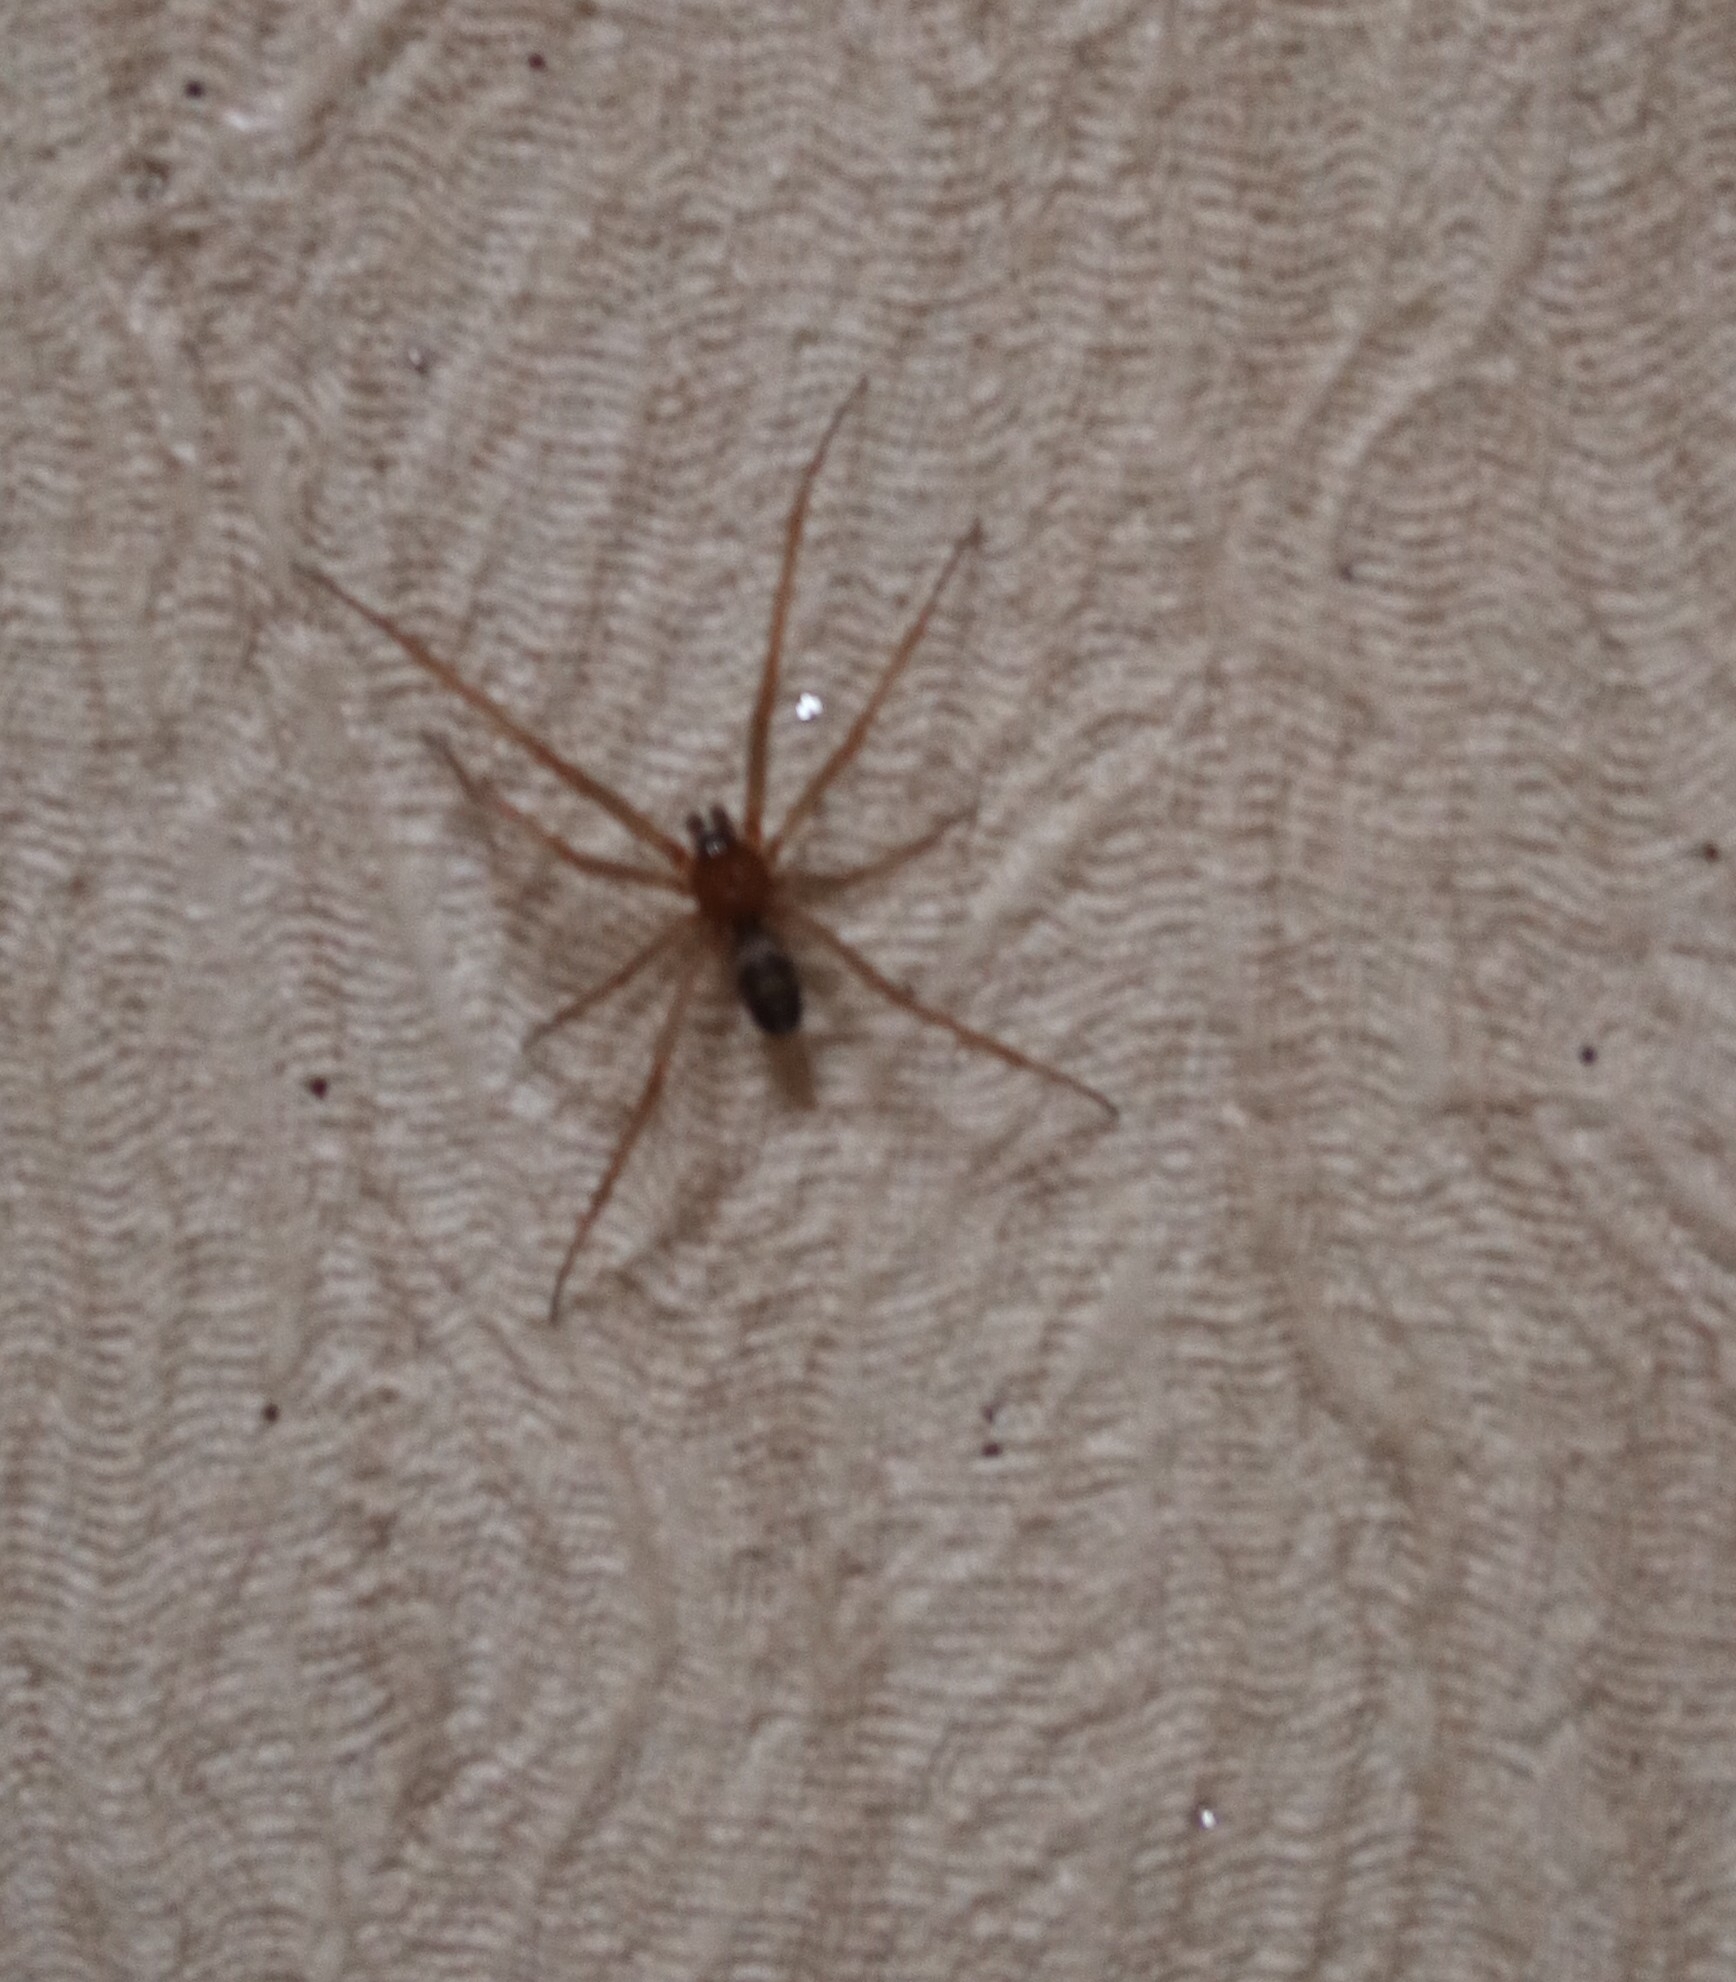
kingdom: Animalia
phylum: Arthropoda
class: Arachnida
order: Araneae
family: Theridiidae
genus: Steatoda
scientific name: Steatoda grossa
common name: False black widow
